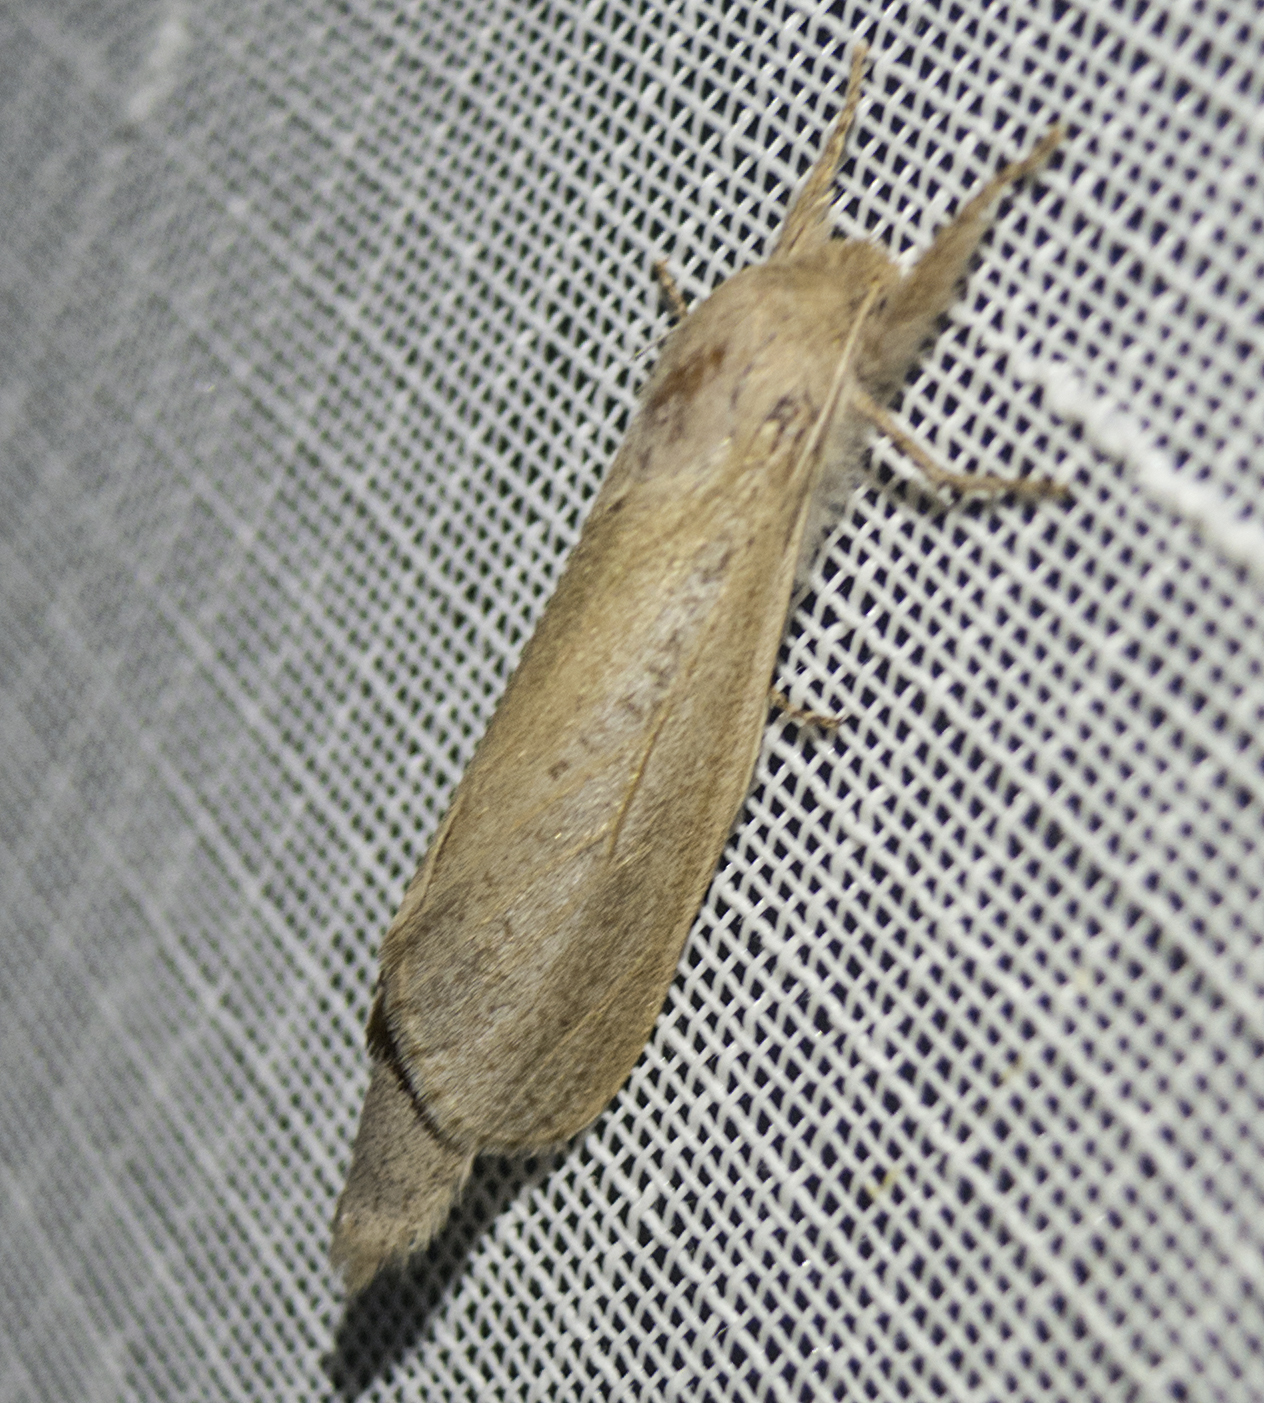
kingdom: Animalia
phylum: Arthropoda
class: Insecta
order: Lepidoptera
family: Cossidae
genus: Phragmataecia
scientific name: Phragmataecia castaneae
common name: Reed leopard
